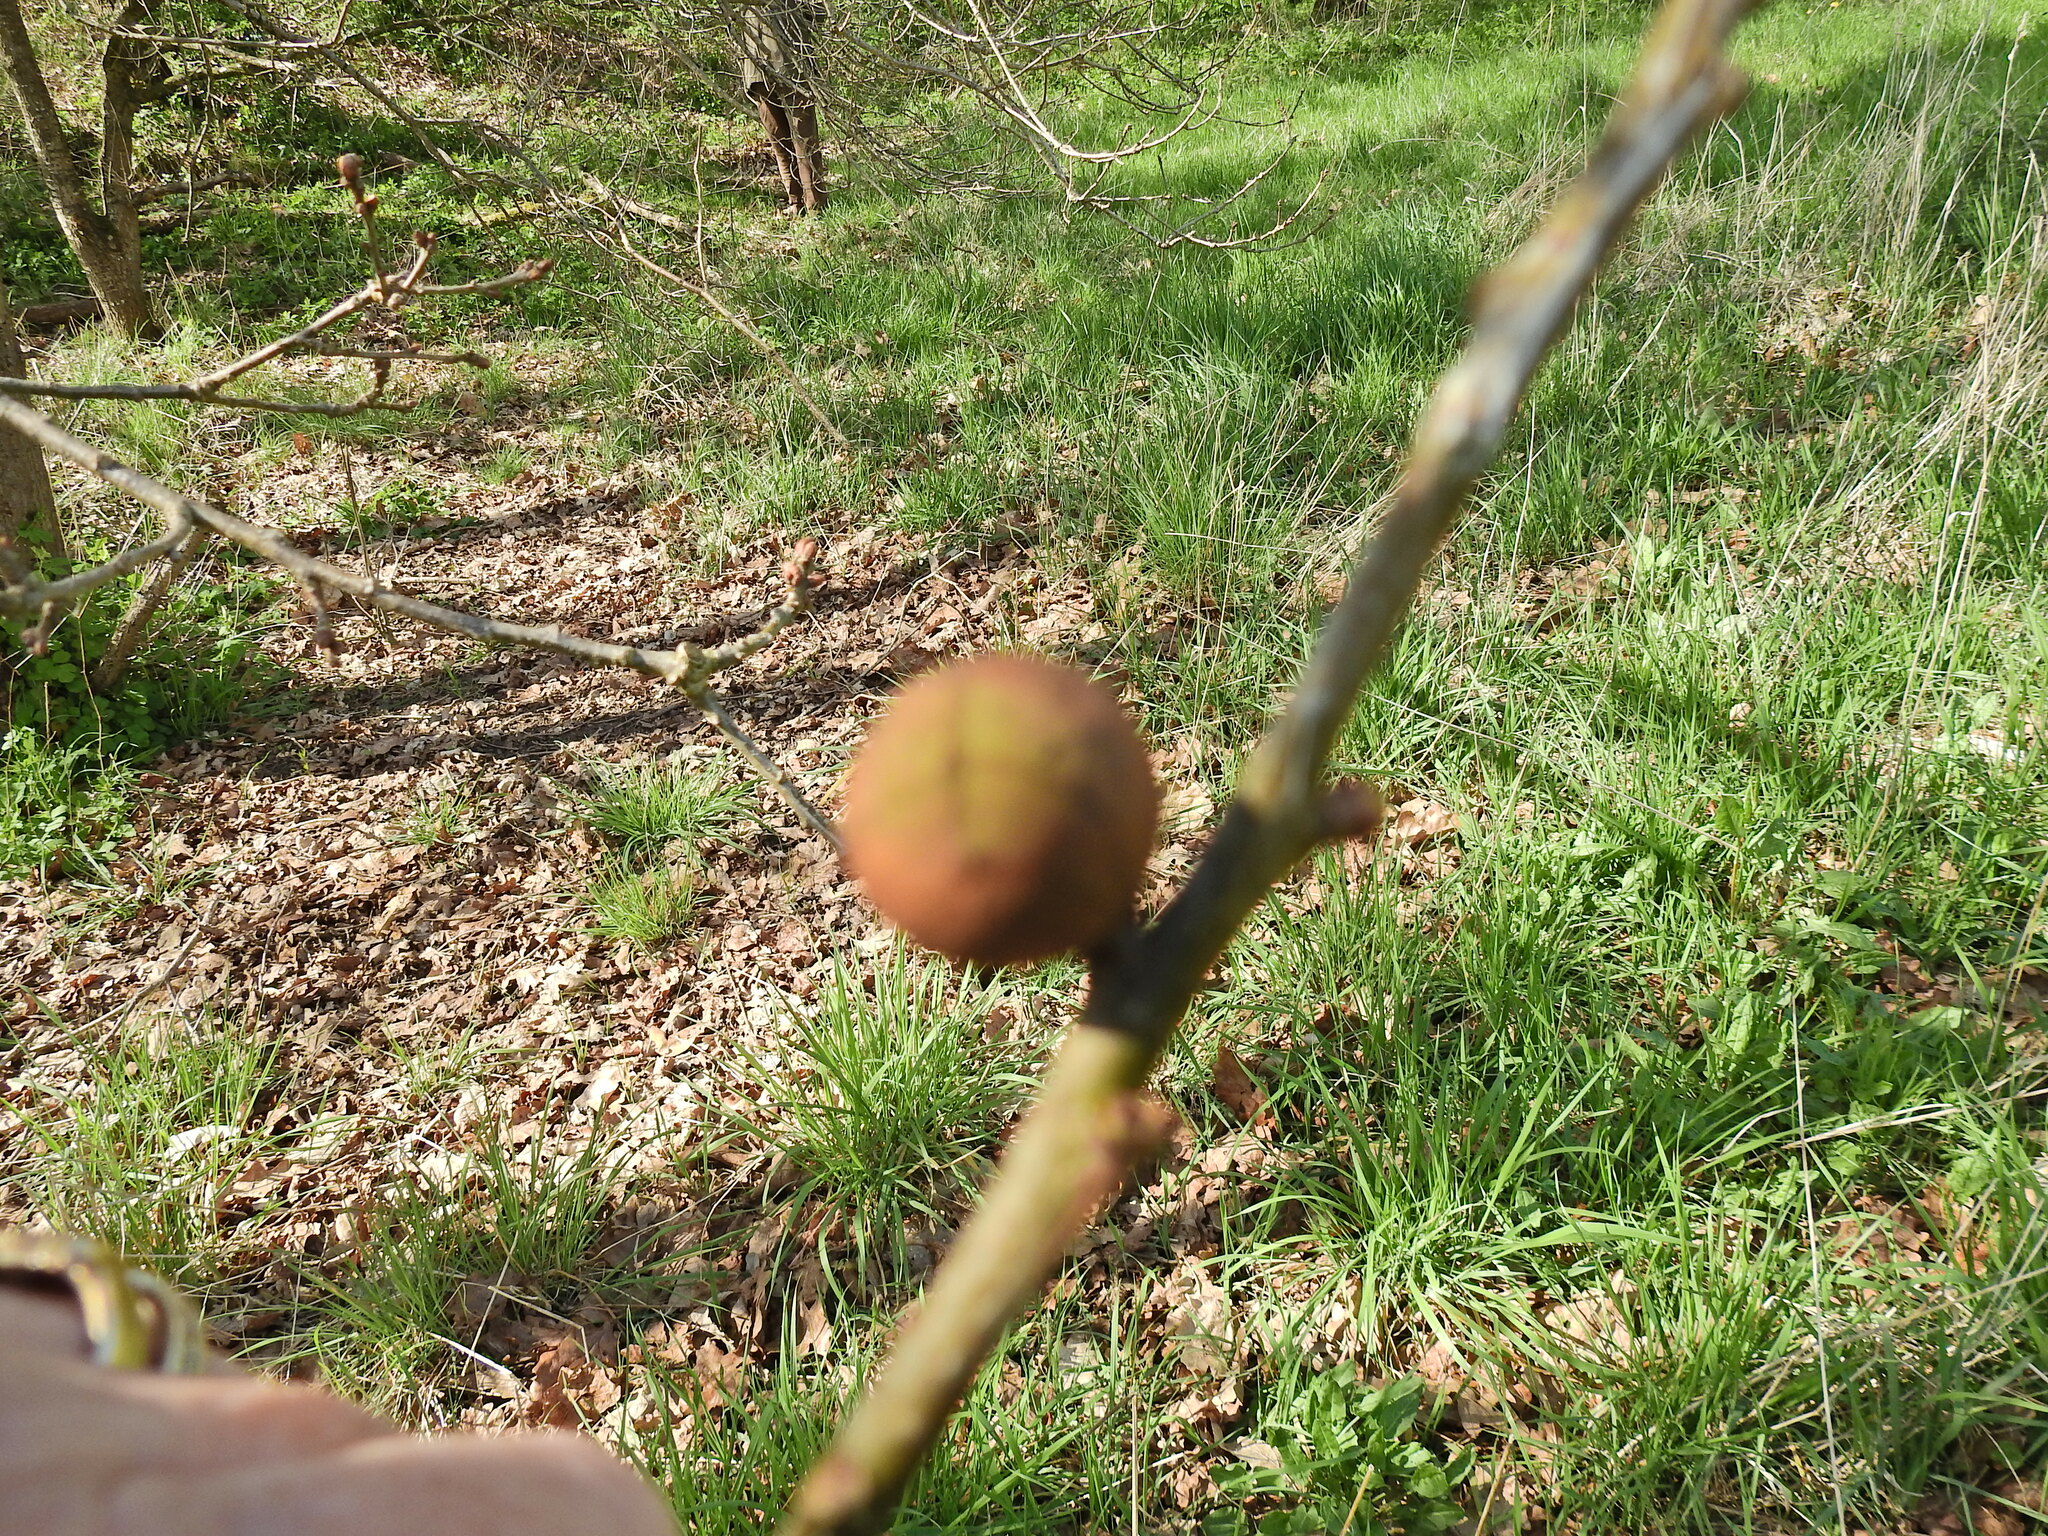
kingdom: Animalia
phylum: Arthropoda
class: Insecta
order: Hymenoptera
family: Cynipidae
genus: Andricus
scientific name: Andricus kollari
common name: Marble gall
